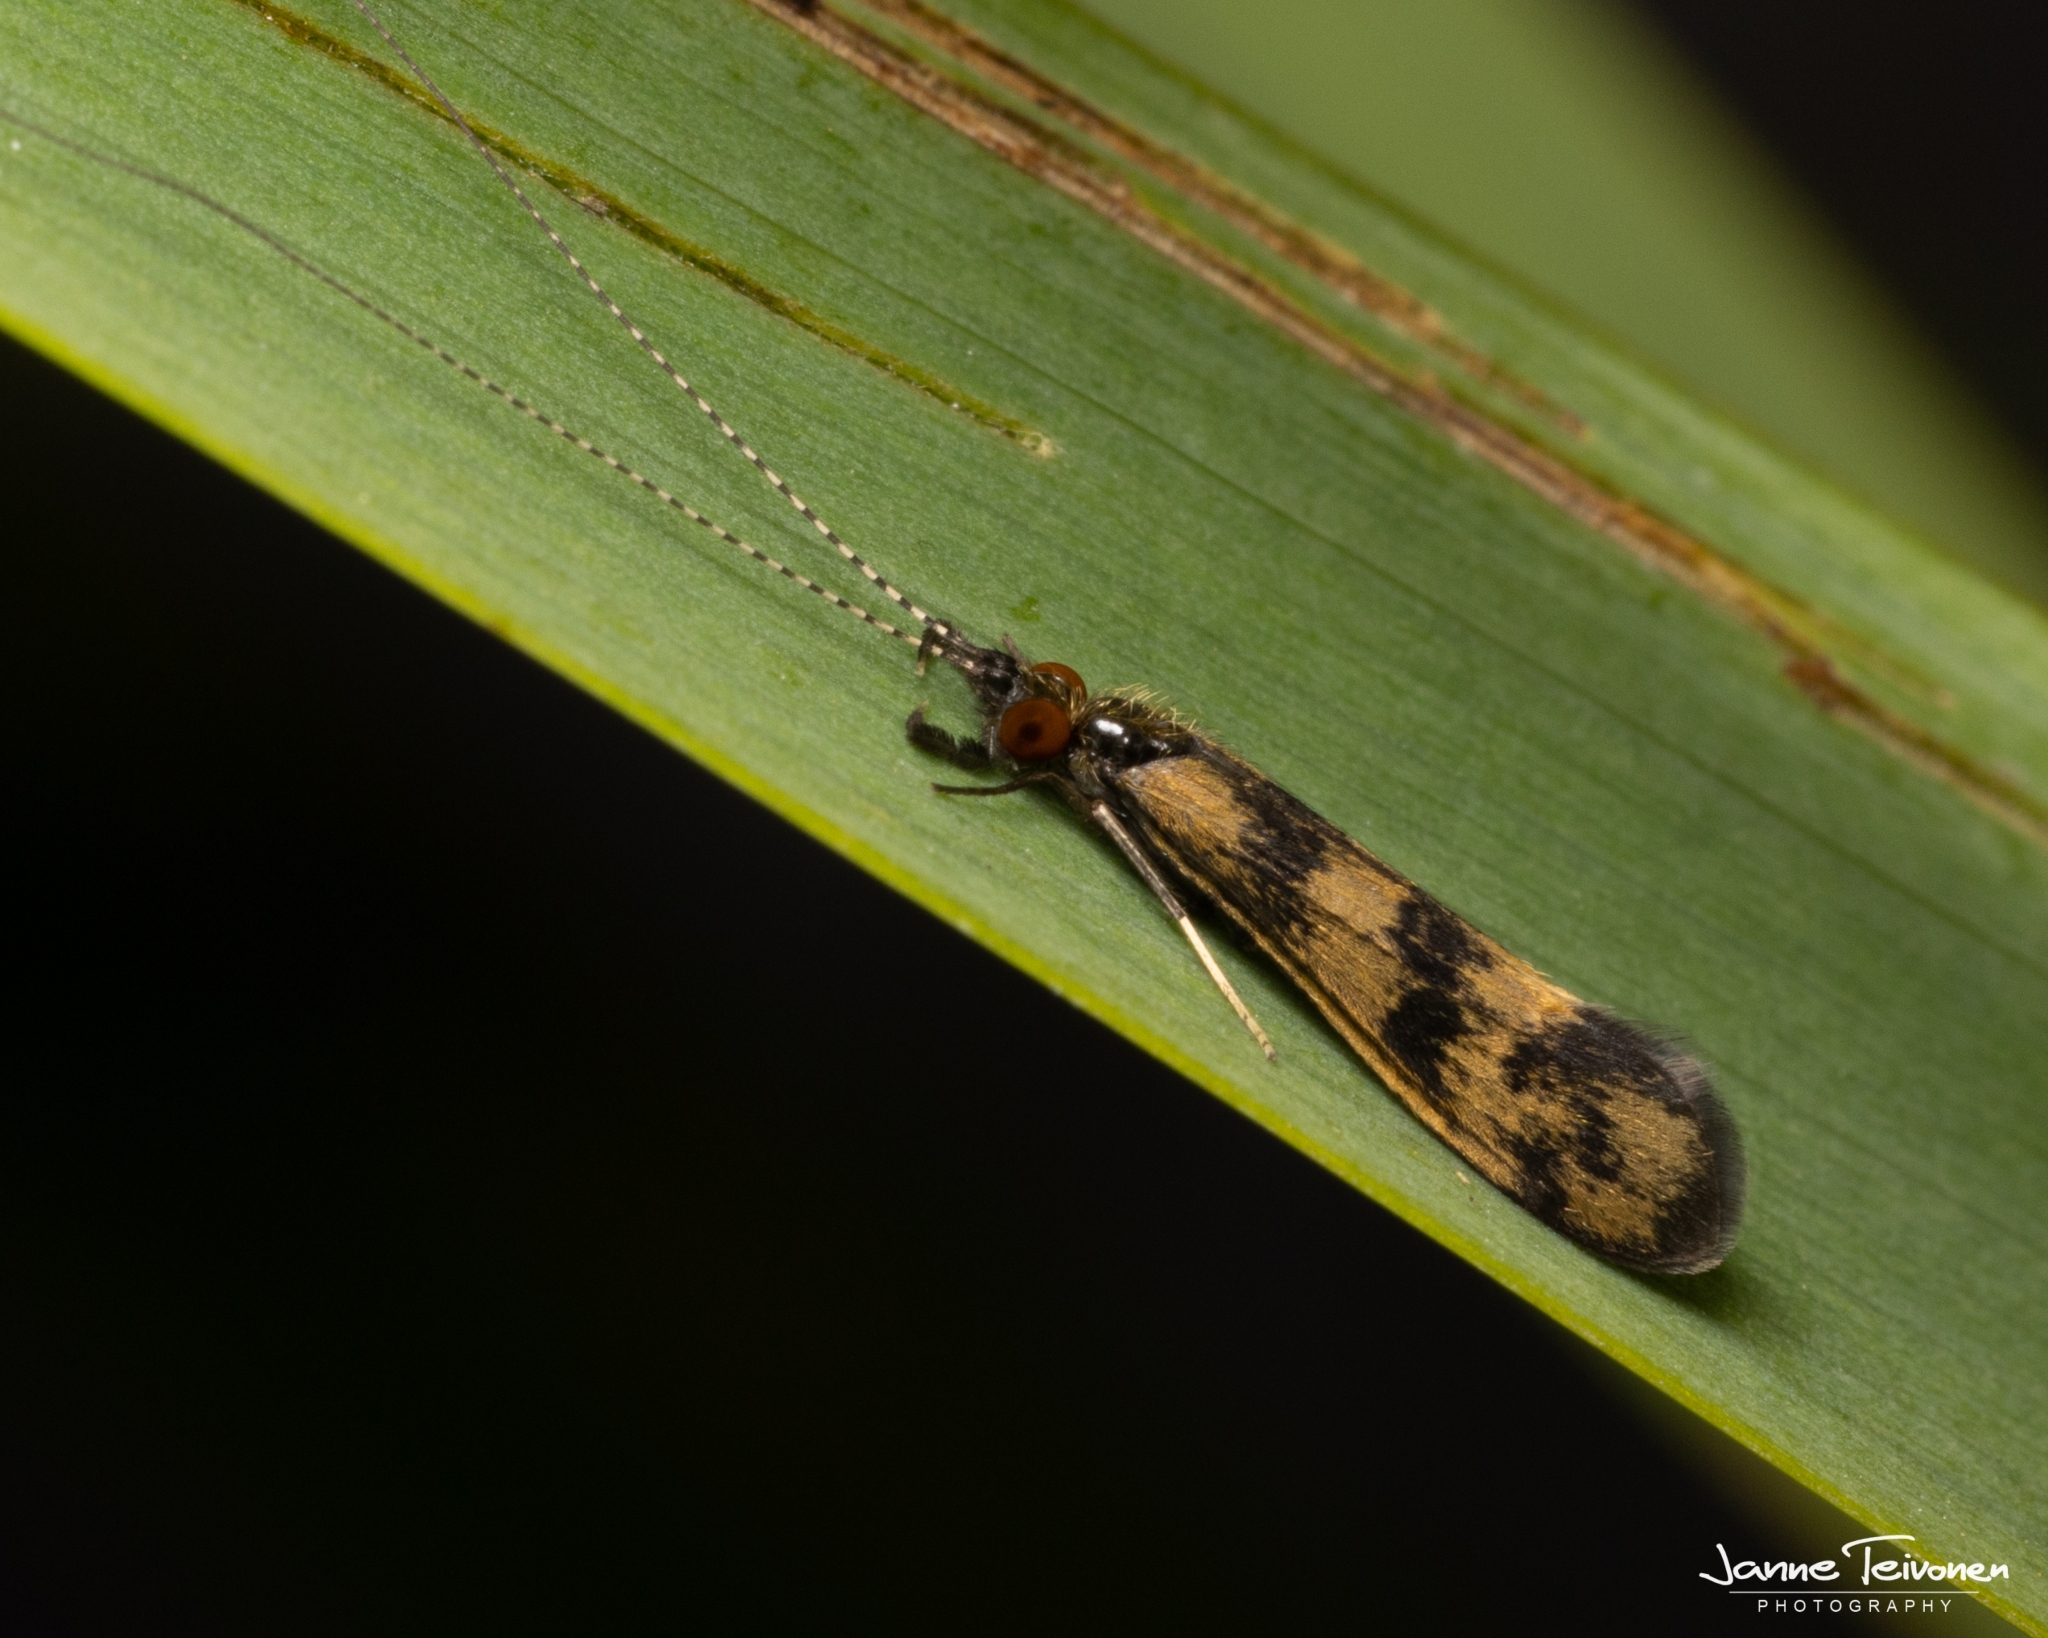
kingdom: Animalia
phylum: Arthropoda
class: Insecta
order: Trichoptera
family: Leptoceridae
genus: Mystacides
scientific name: Mystacides longicornis
